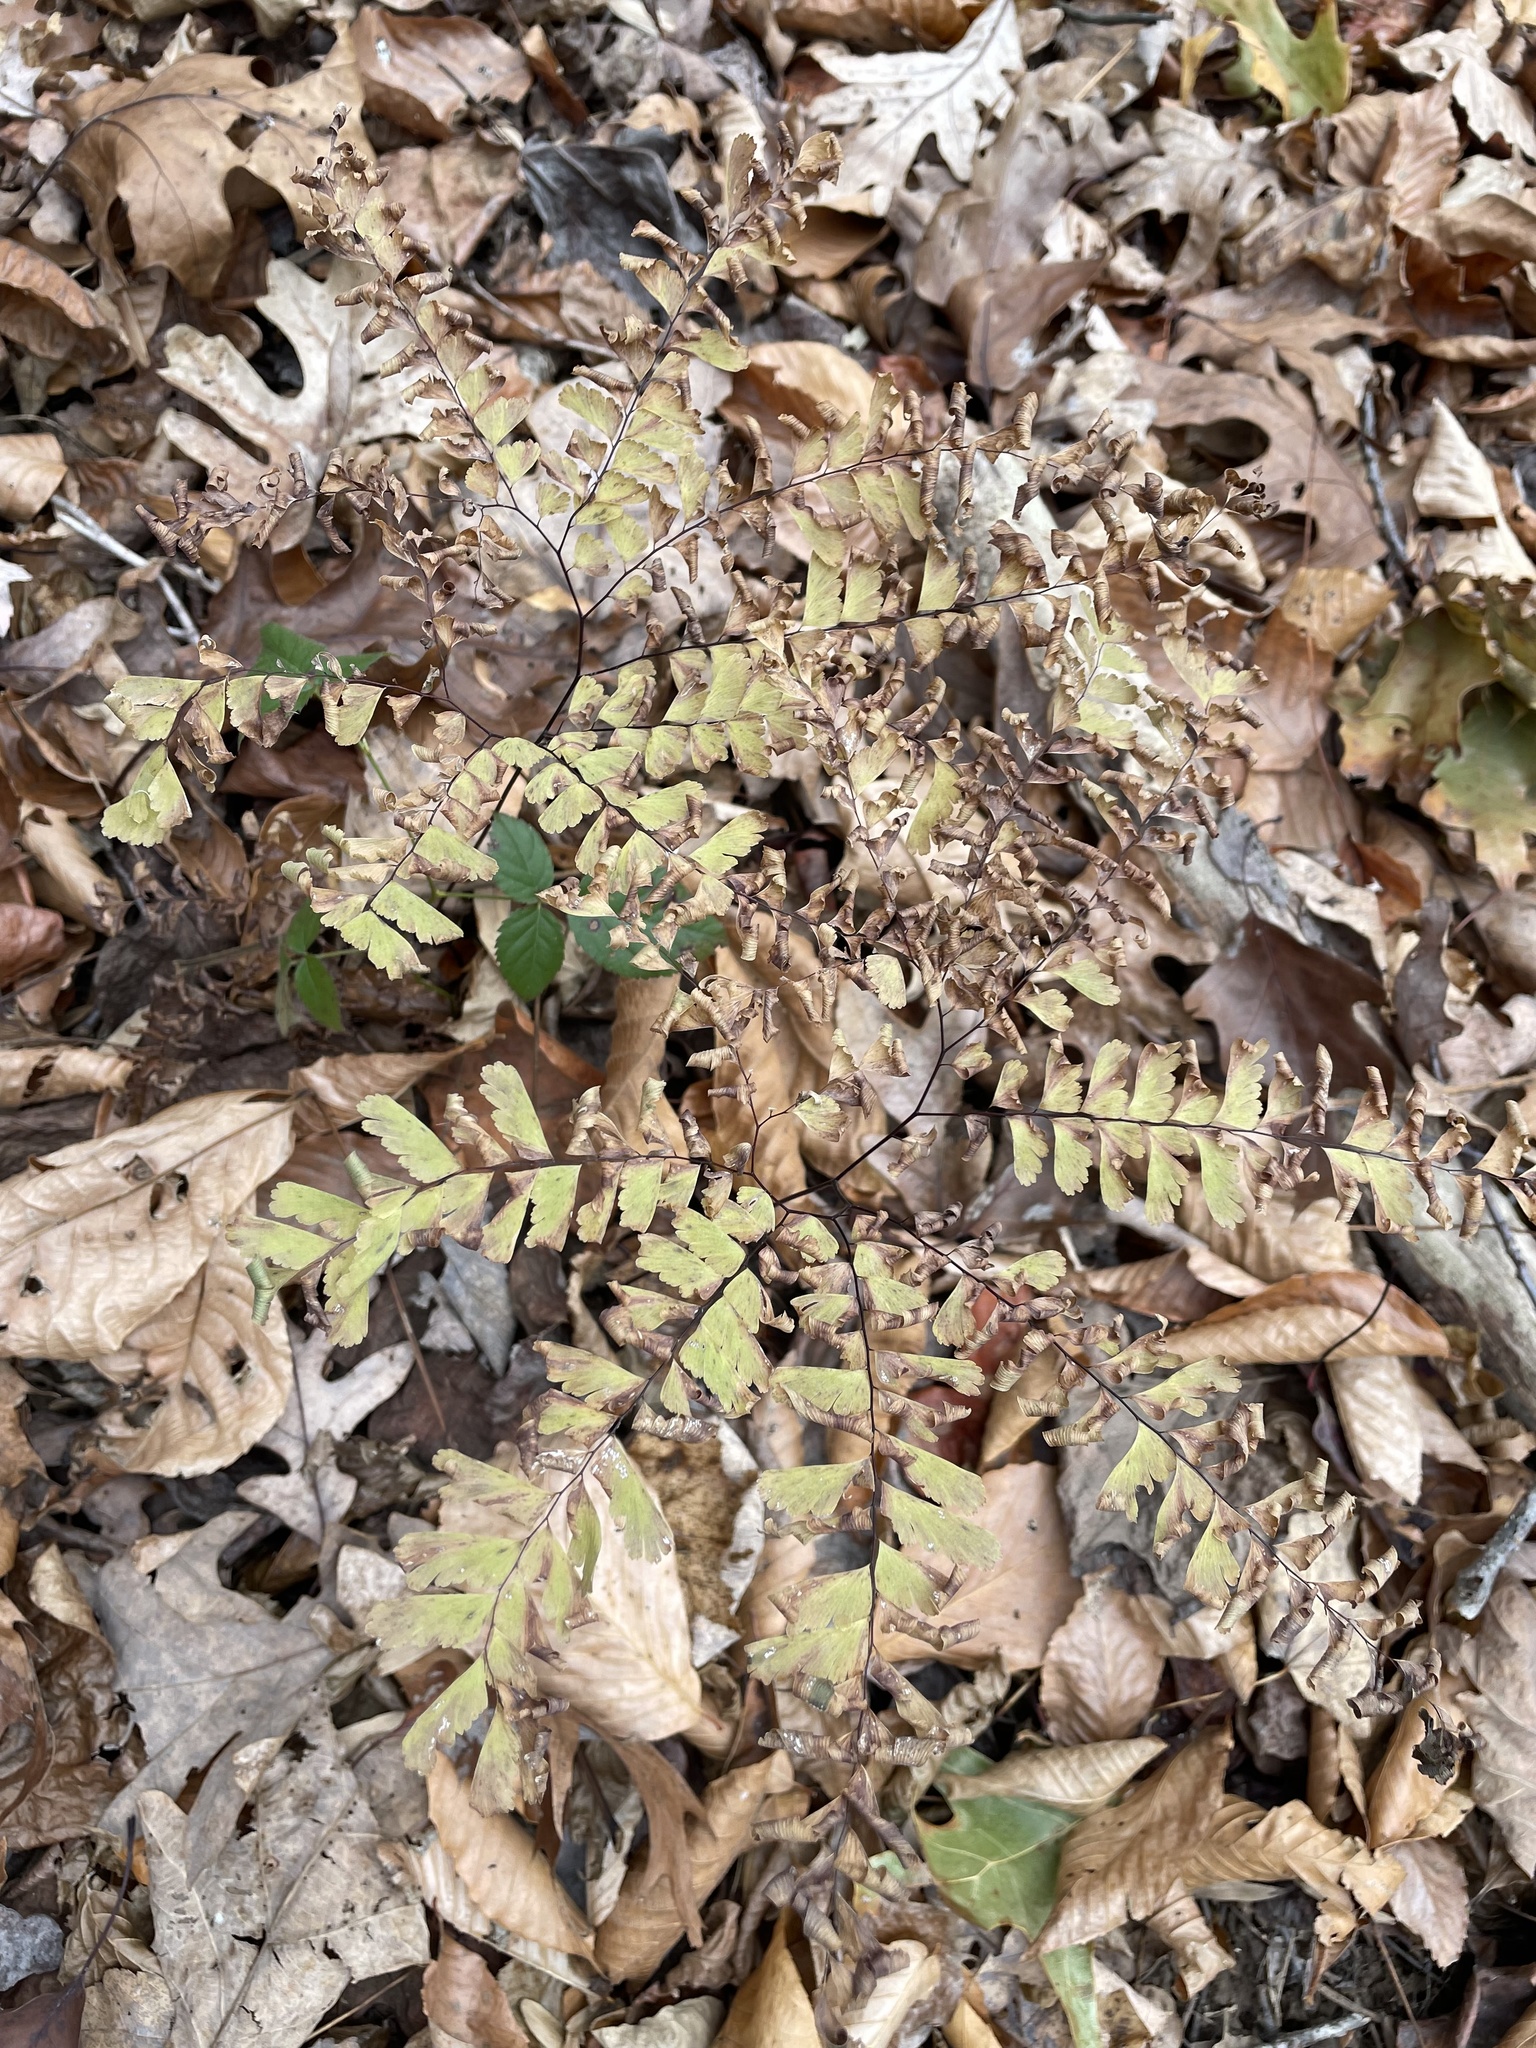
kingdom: Plantae
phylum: Tracheophyta
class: Polypodiopsida
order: Polypodiales
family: Pteridaceae
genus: Adiantum
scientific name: Adiantum pedatum
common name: Five-finger fern
